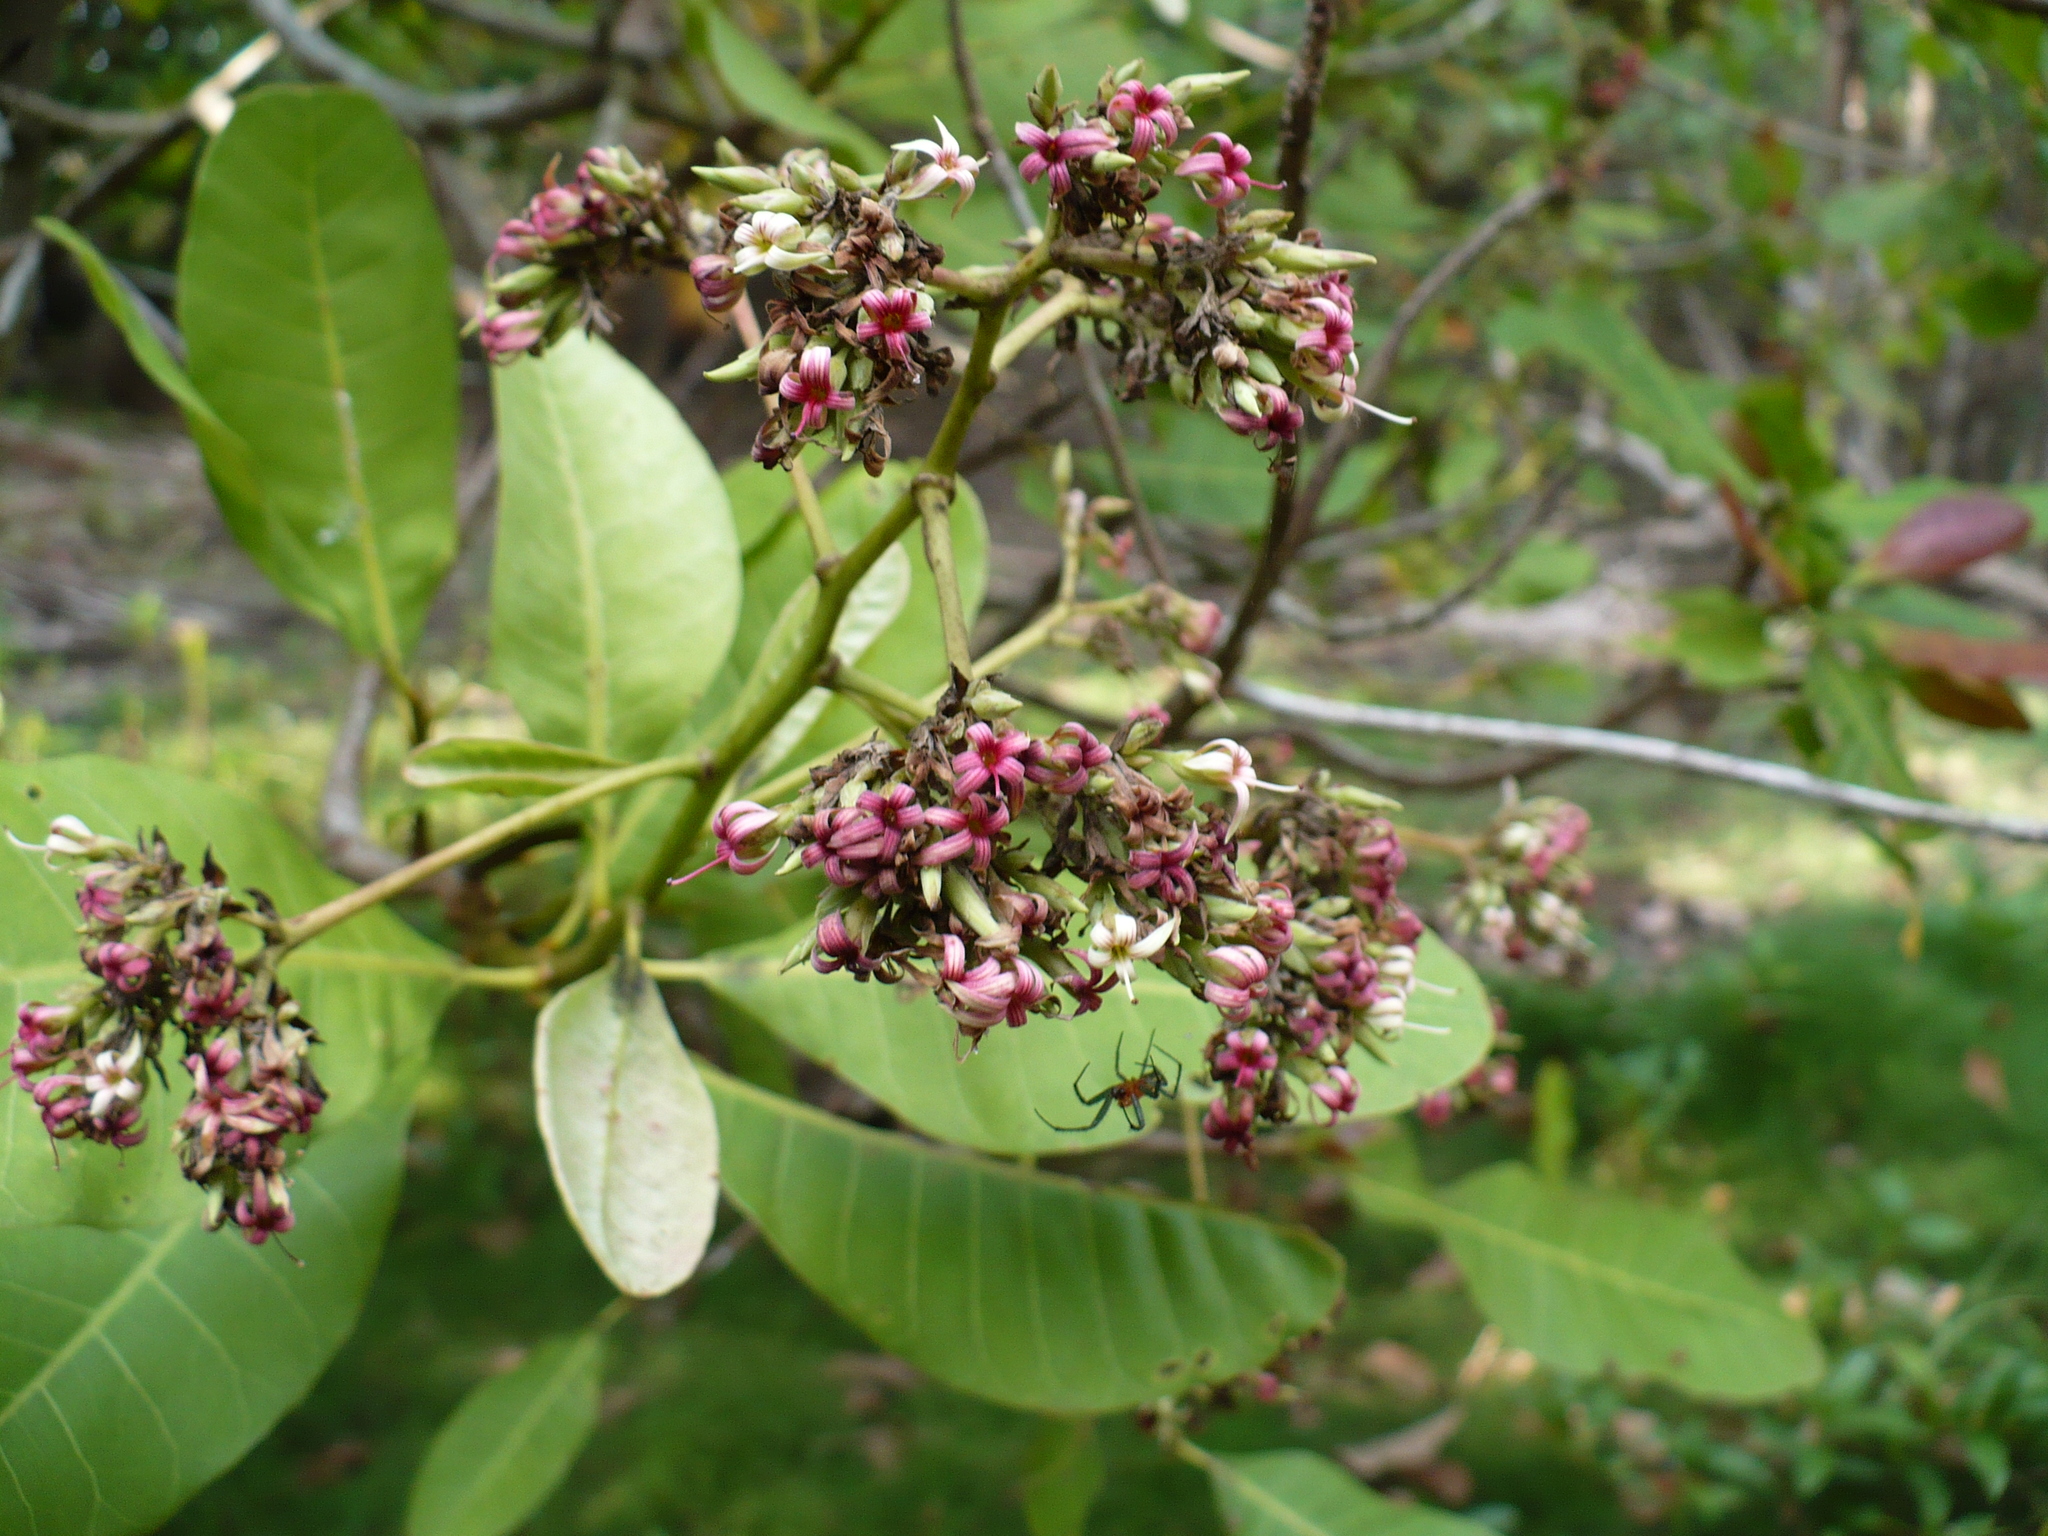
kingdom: Plantae
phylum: Tracheophyta
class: Magnoliopsida
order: Sapindales
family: Anacardiaceae
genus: Anacardium
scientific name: Anacardium occidentale
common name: Cashew
